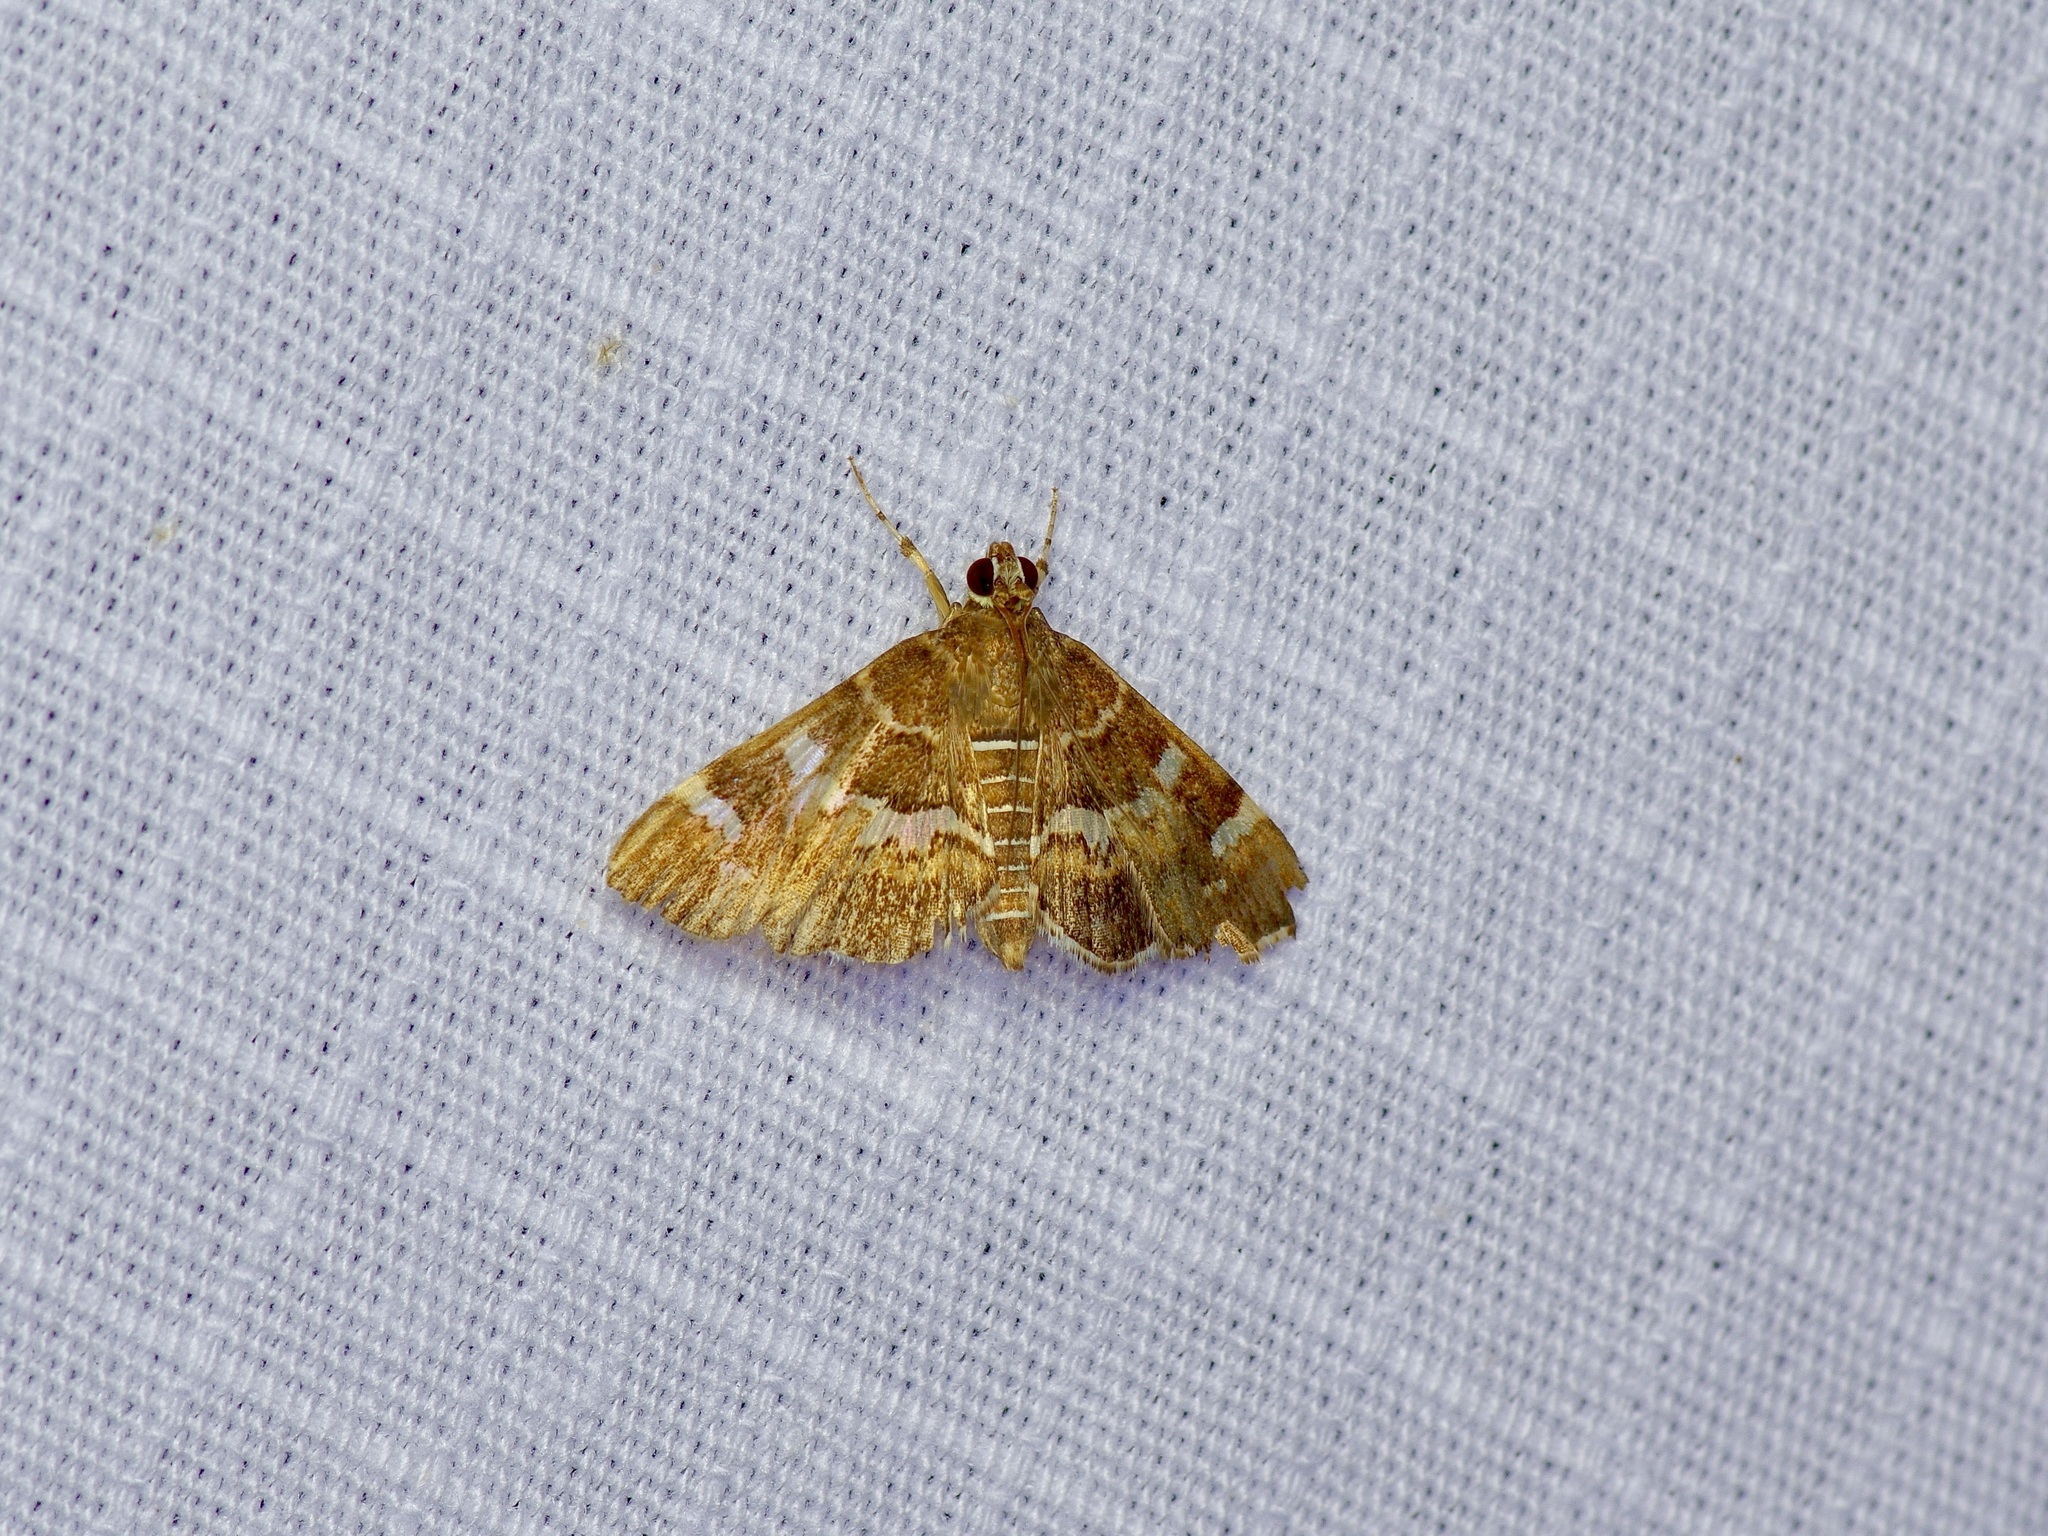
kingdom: Animalia
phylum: Arthropoda
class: Insecta
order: Lepidoptera
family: Crambidae
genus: Hymenia
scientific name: Hymenia perspectalis
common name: Spotted beet webworm
